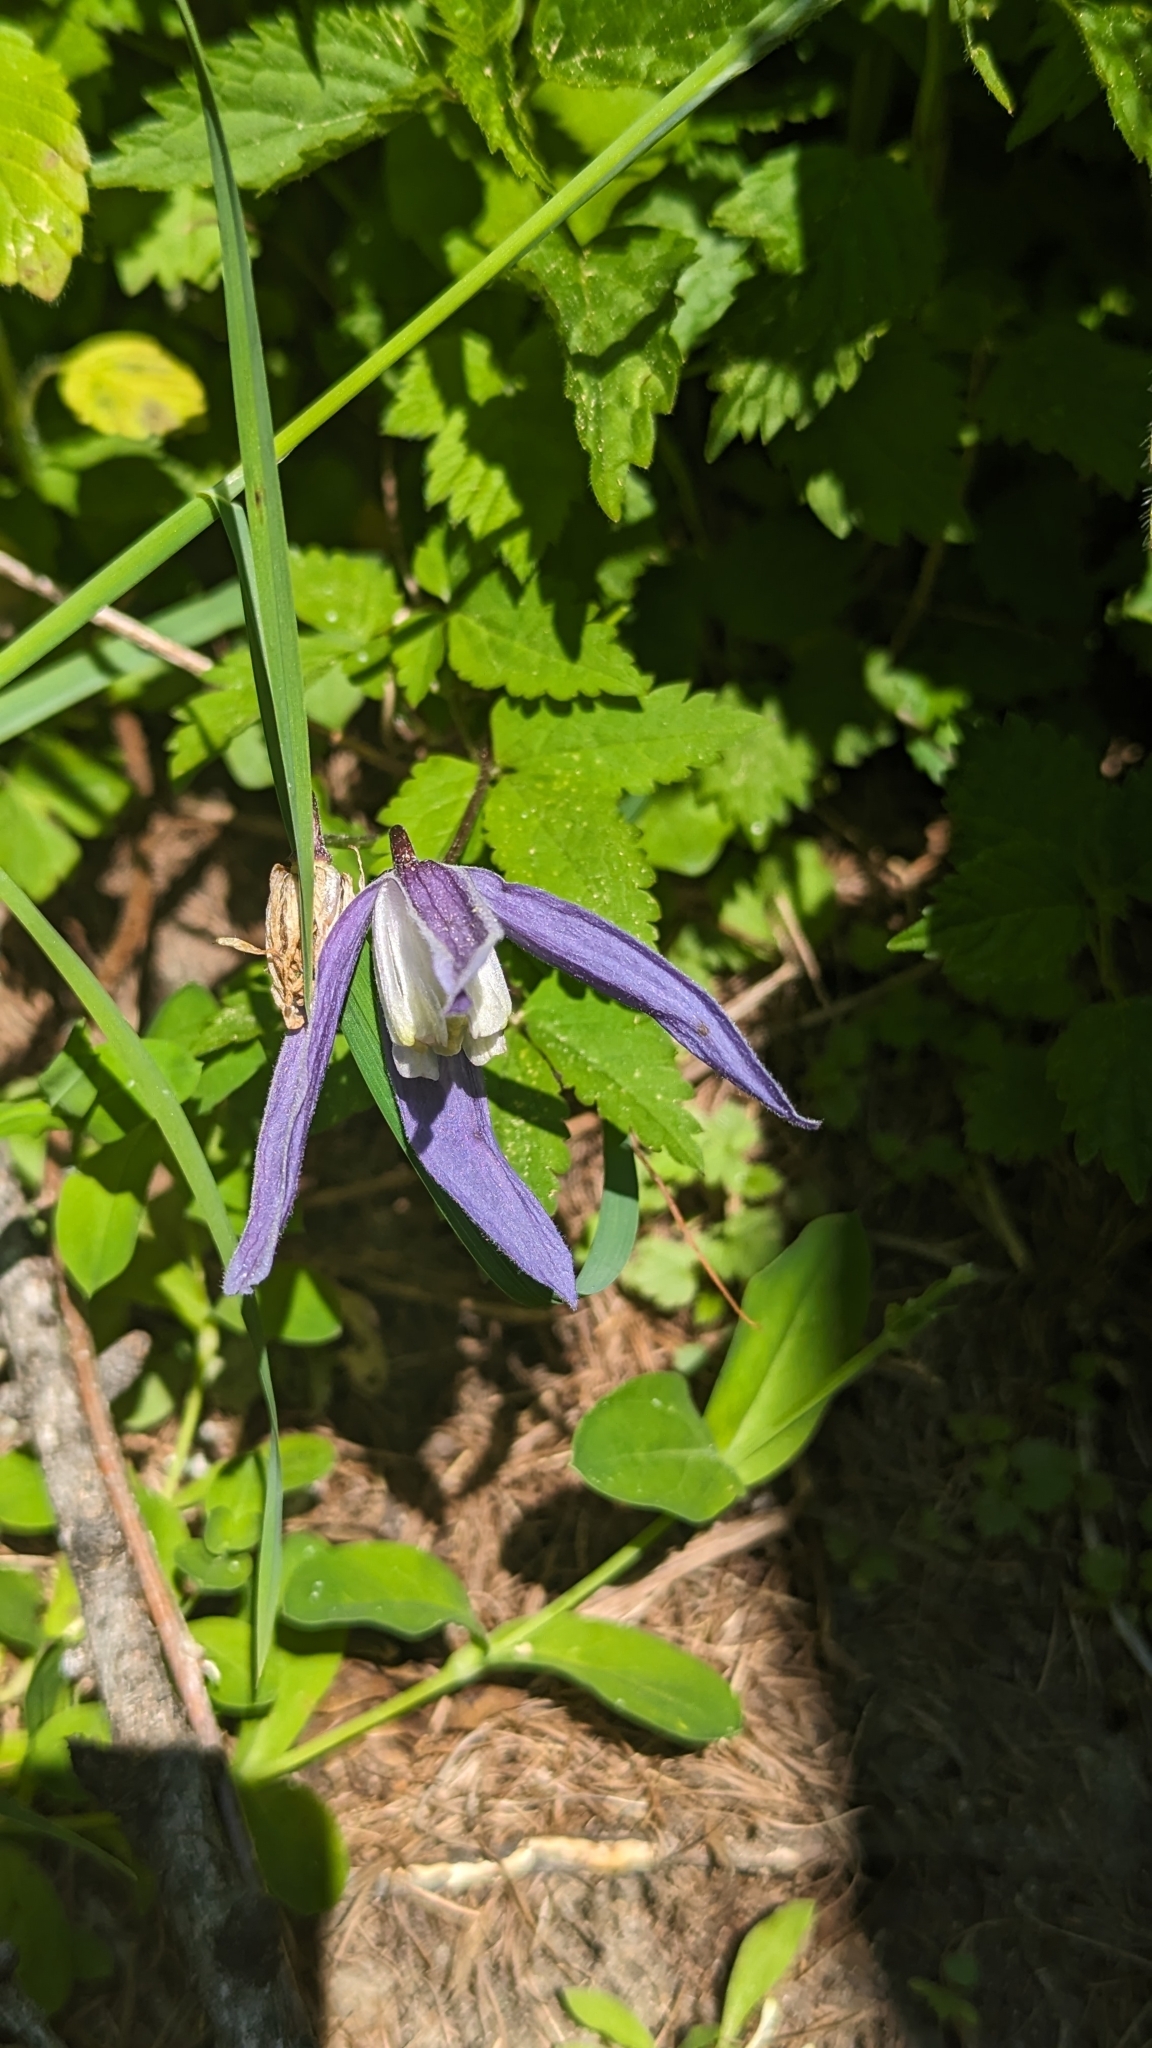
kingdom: Plantae
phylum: Tracheophyta
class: Magnoliopsida
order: Ranunculales
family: Ranunculaceae
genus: Clematis
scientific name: Clematis alpina
